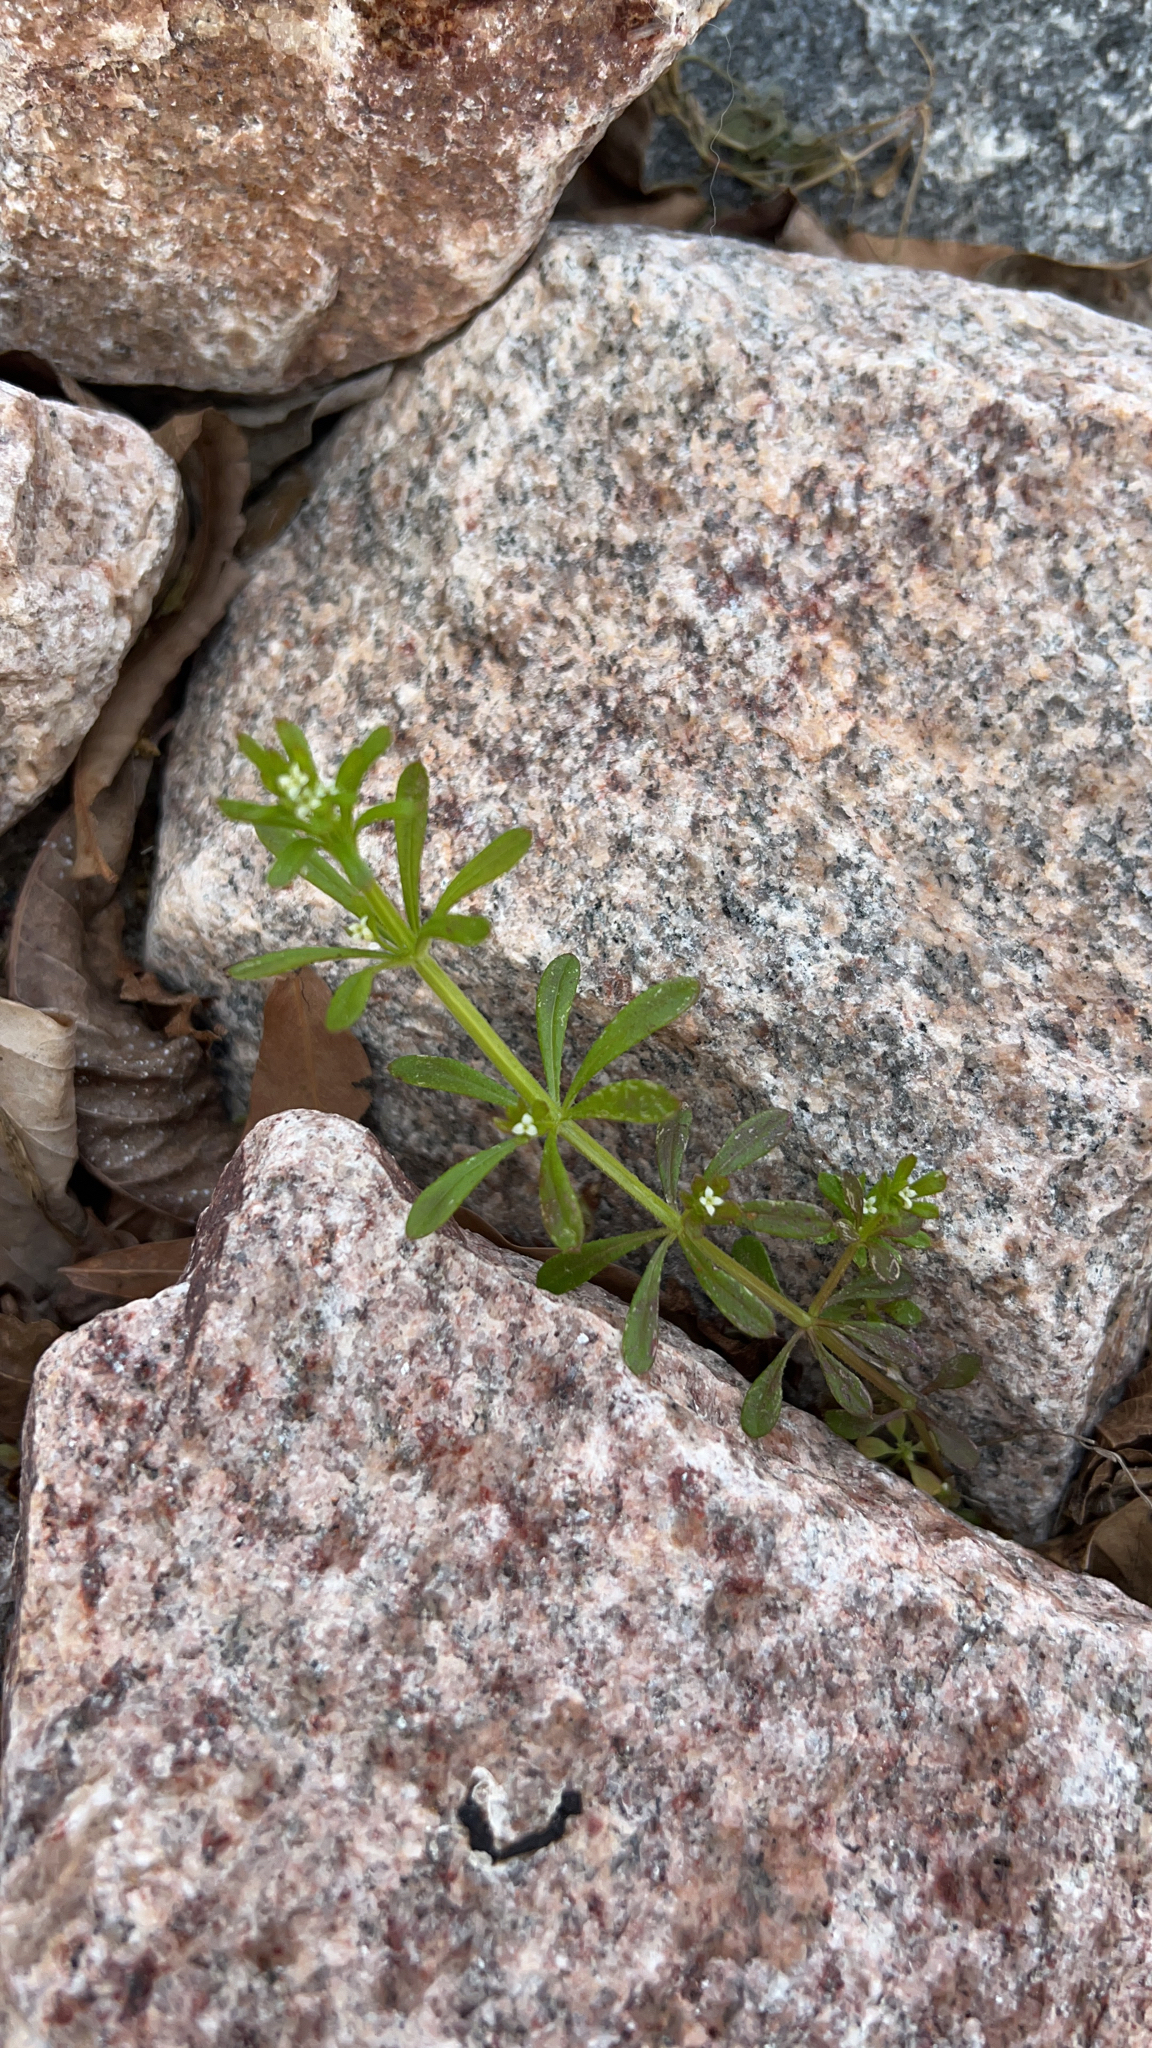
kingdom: Plantae
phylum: Tracheophyta
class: Magnoliopsida
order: Gentianales
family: Rubiaceae
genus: Galium
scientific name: Galium aparine
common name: Cleavers
